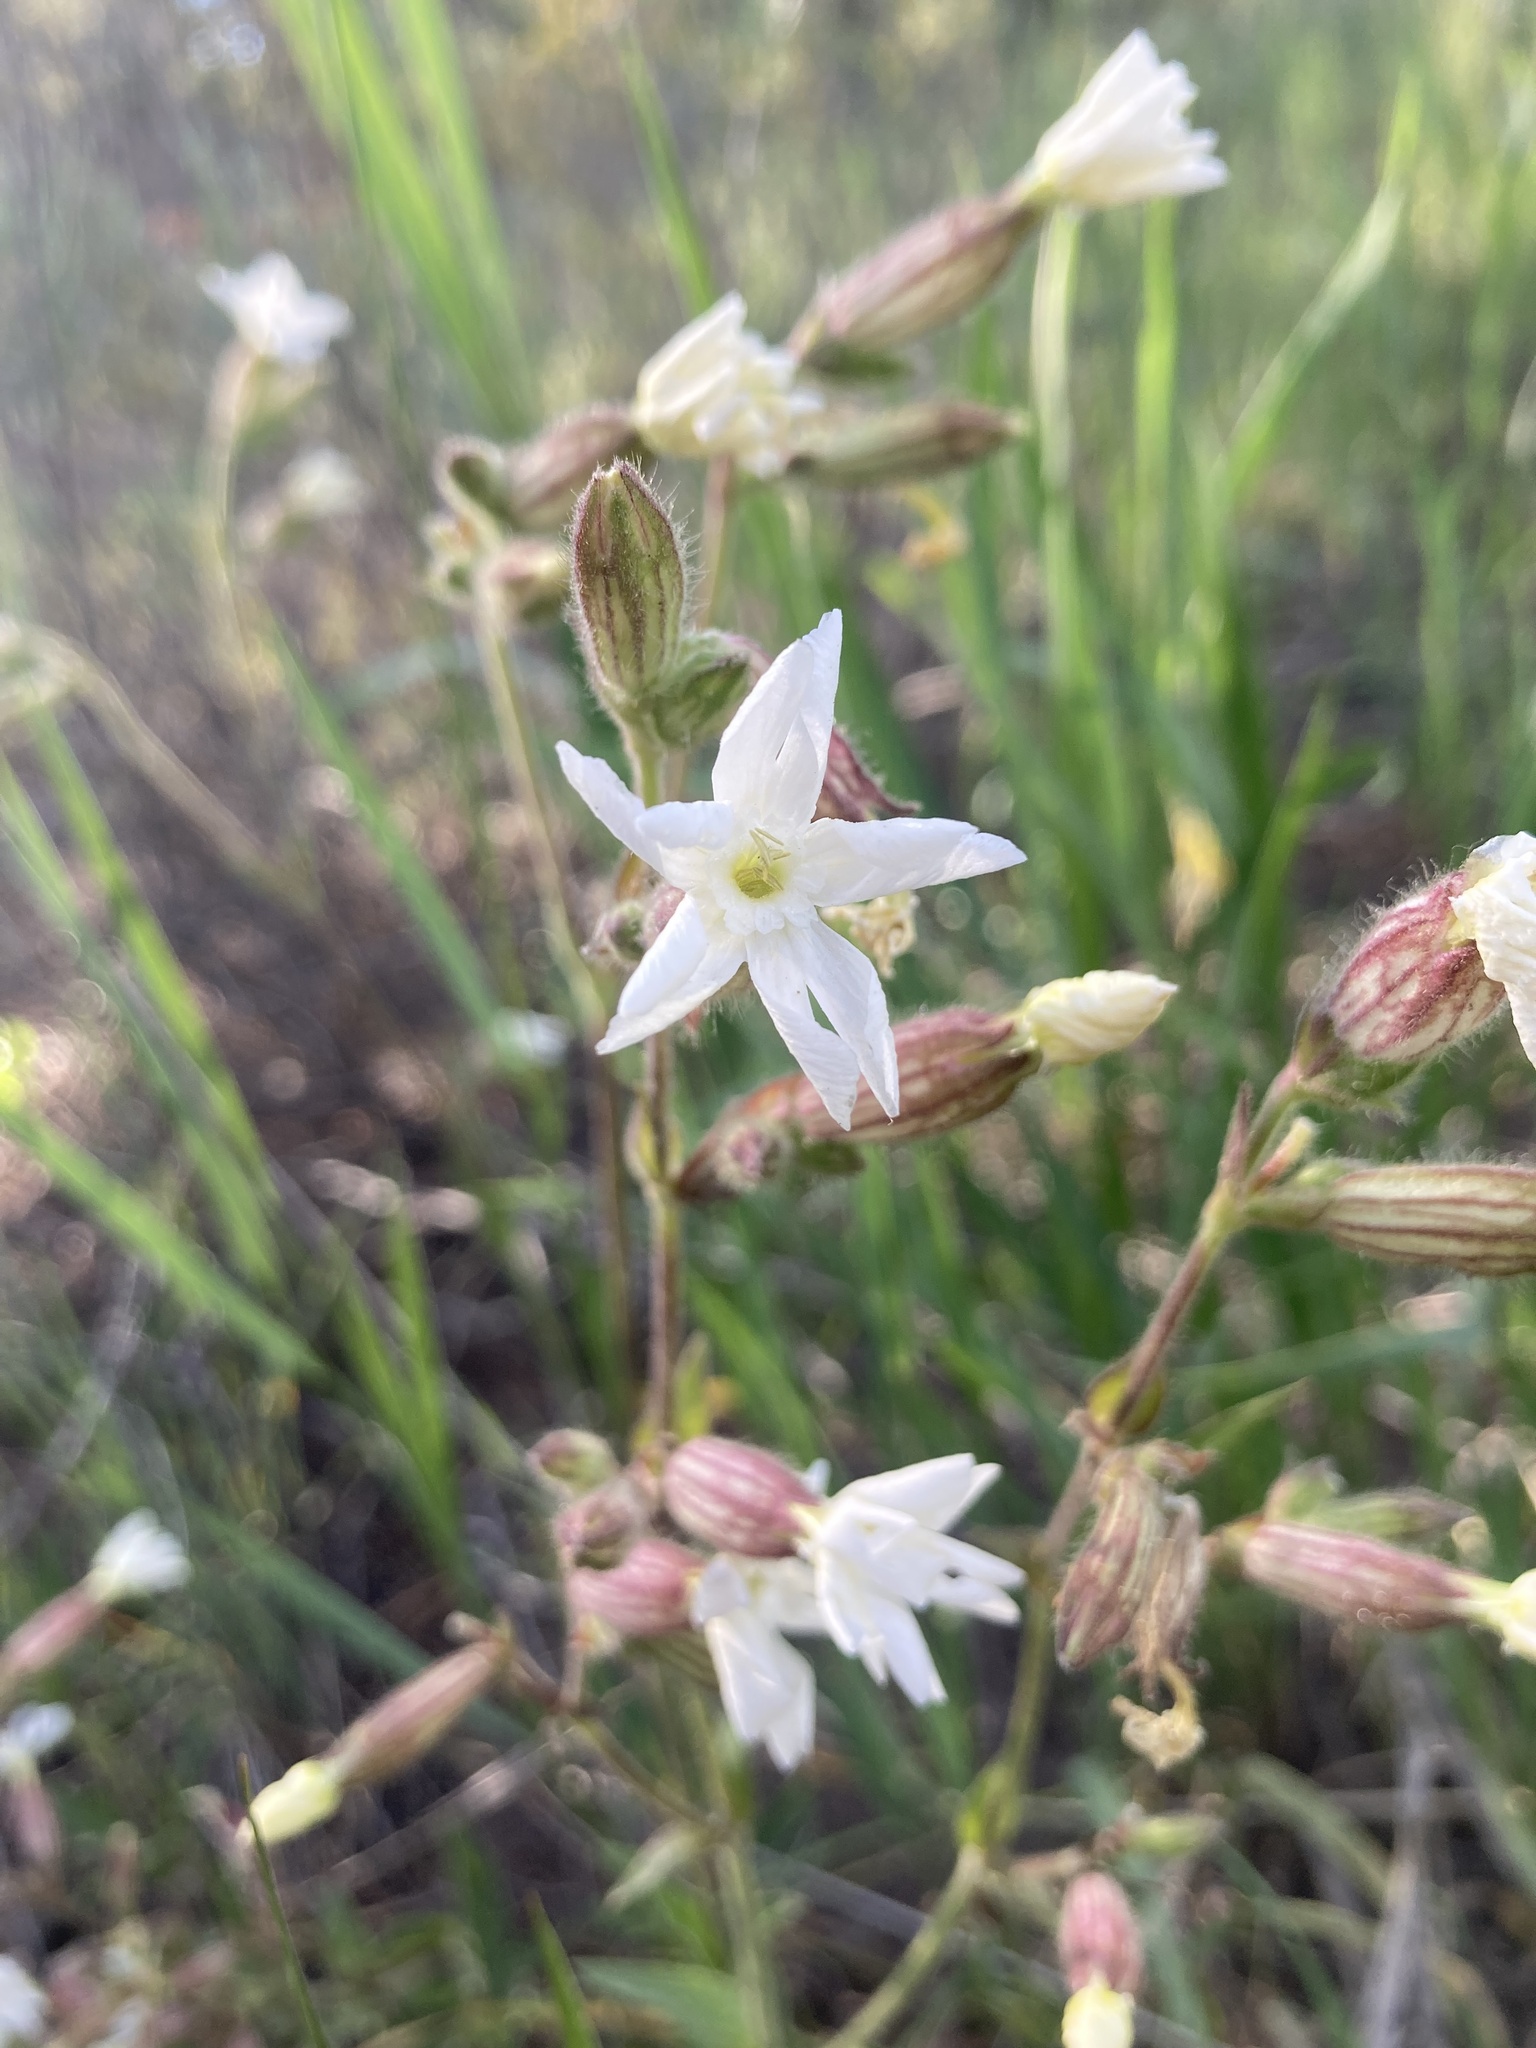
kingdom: Plantae
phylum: Tracheophyta
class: Magnoliopsida
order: Caryophyllales
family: Caryophyllaceae
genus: Silene
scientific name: Silene latifolia
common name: White campion
